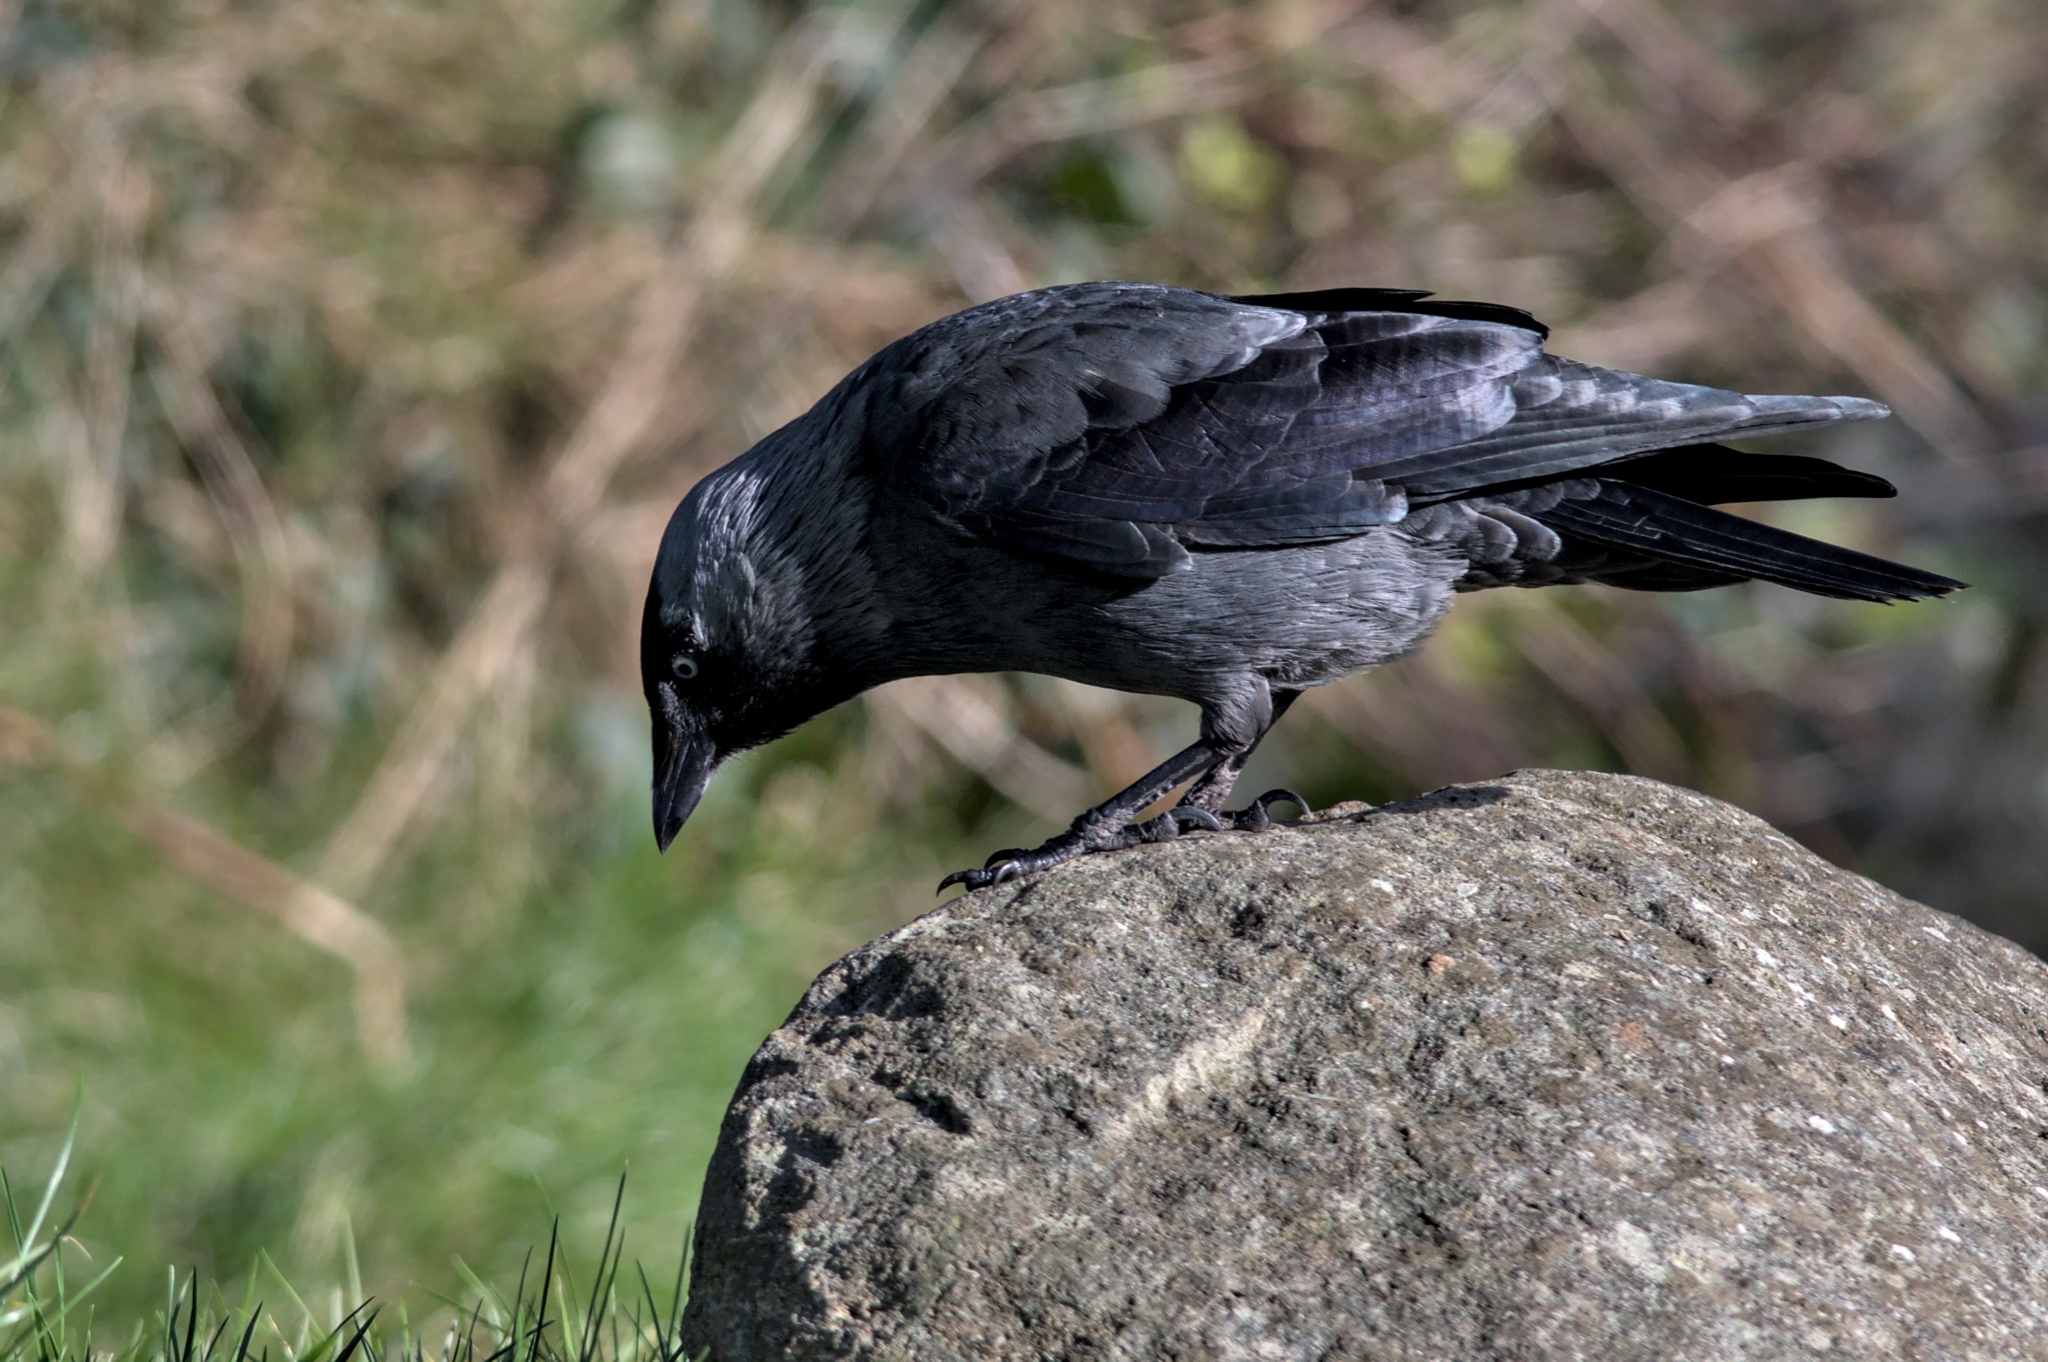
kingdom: Animalia
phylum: Chordata
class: Aves
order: Passeriformes
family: Corvidae
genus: Coloeus
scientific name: Coloeus monedula
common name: Western jackdaw
